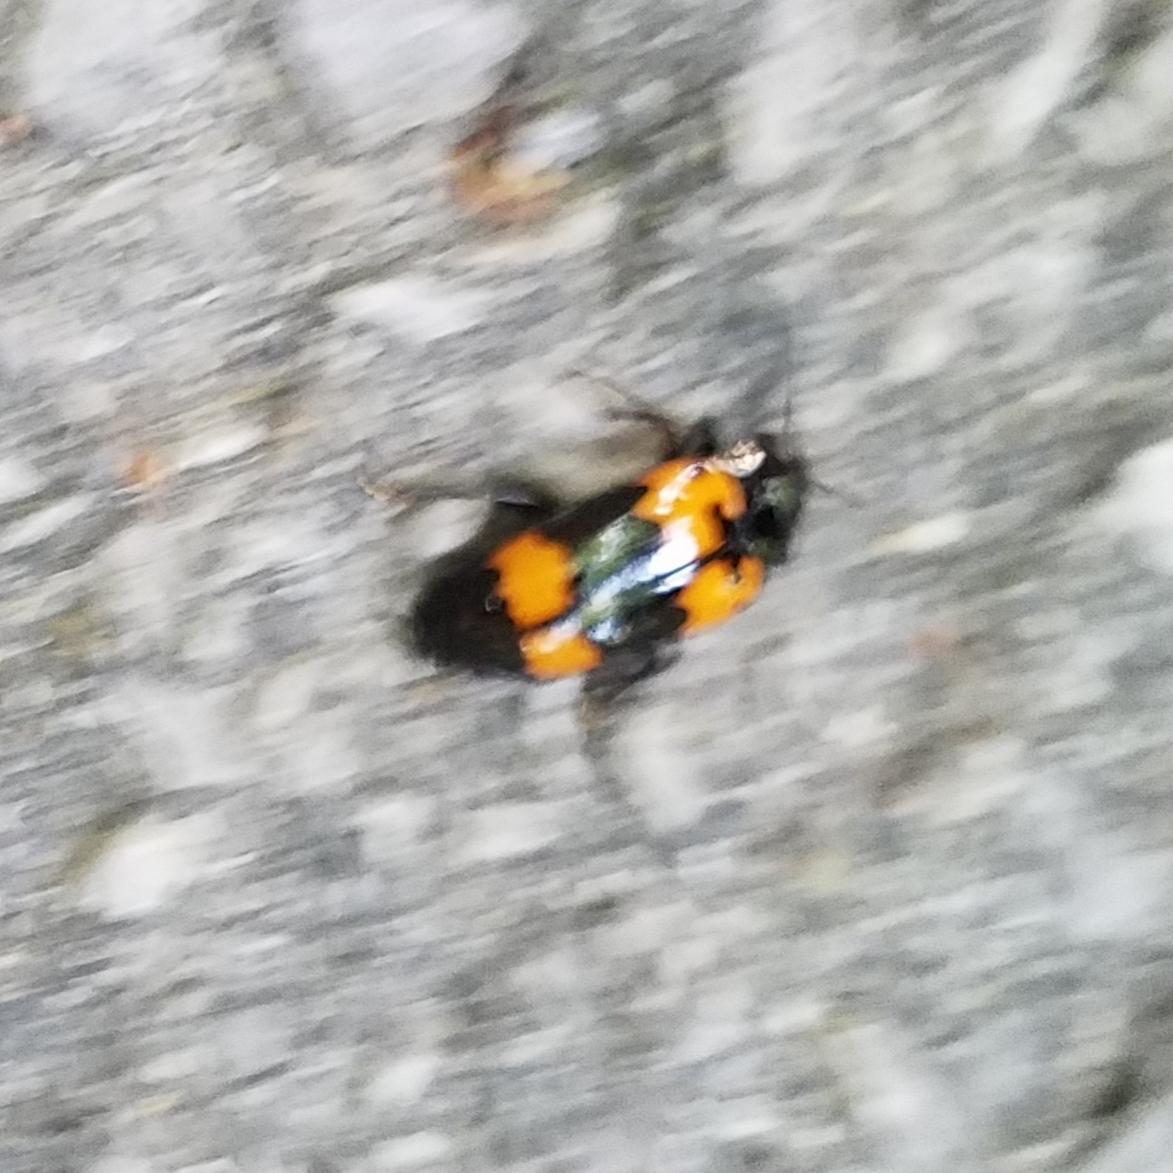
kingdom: Animalia
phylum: Arthropoda
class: Insecta
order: Coleoptera
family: Erotylidae
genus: Megalodacne
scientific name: Megalodacne heros
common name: Pleasing fungus beetle
